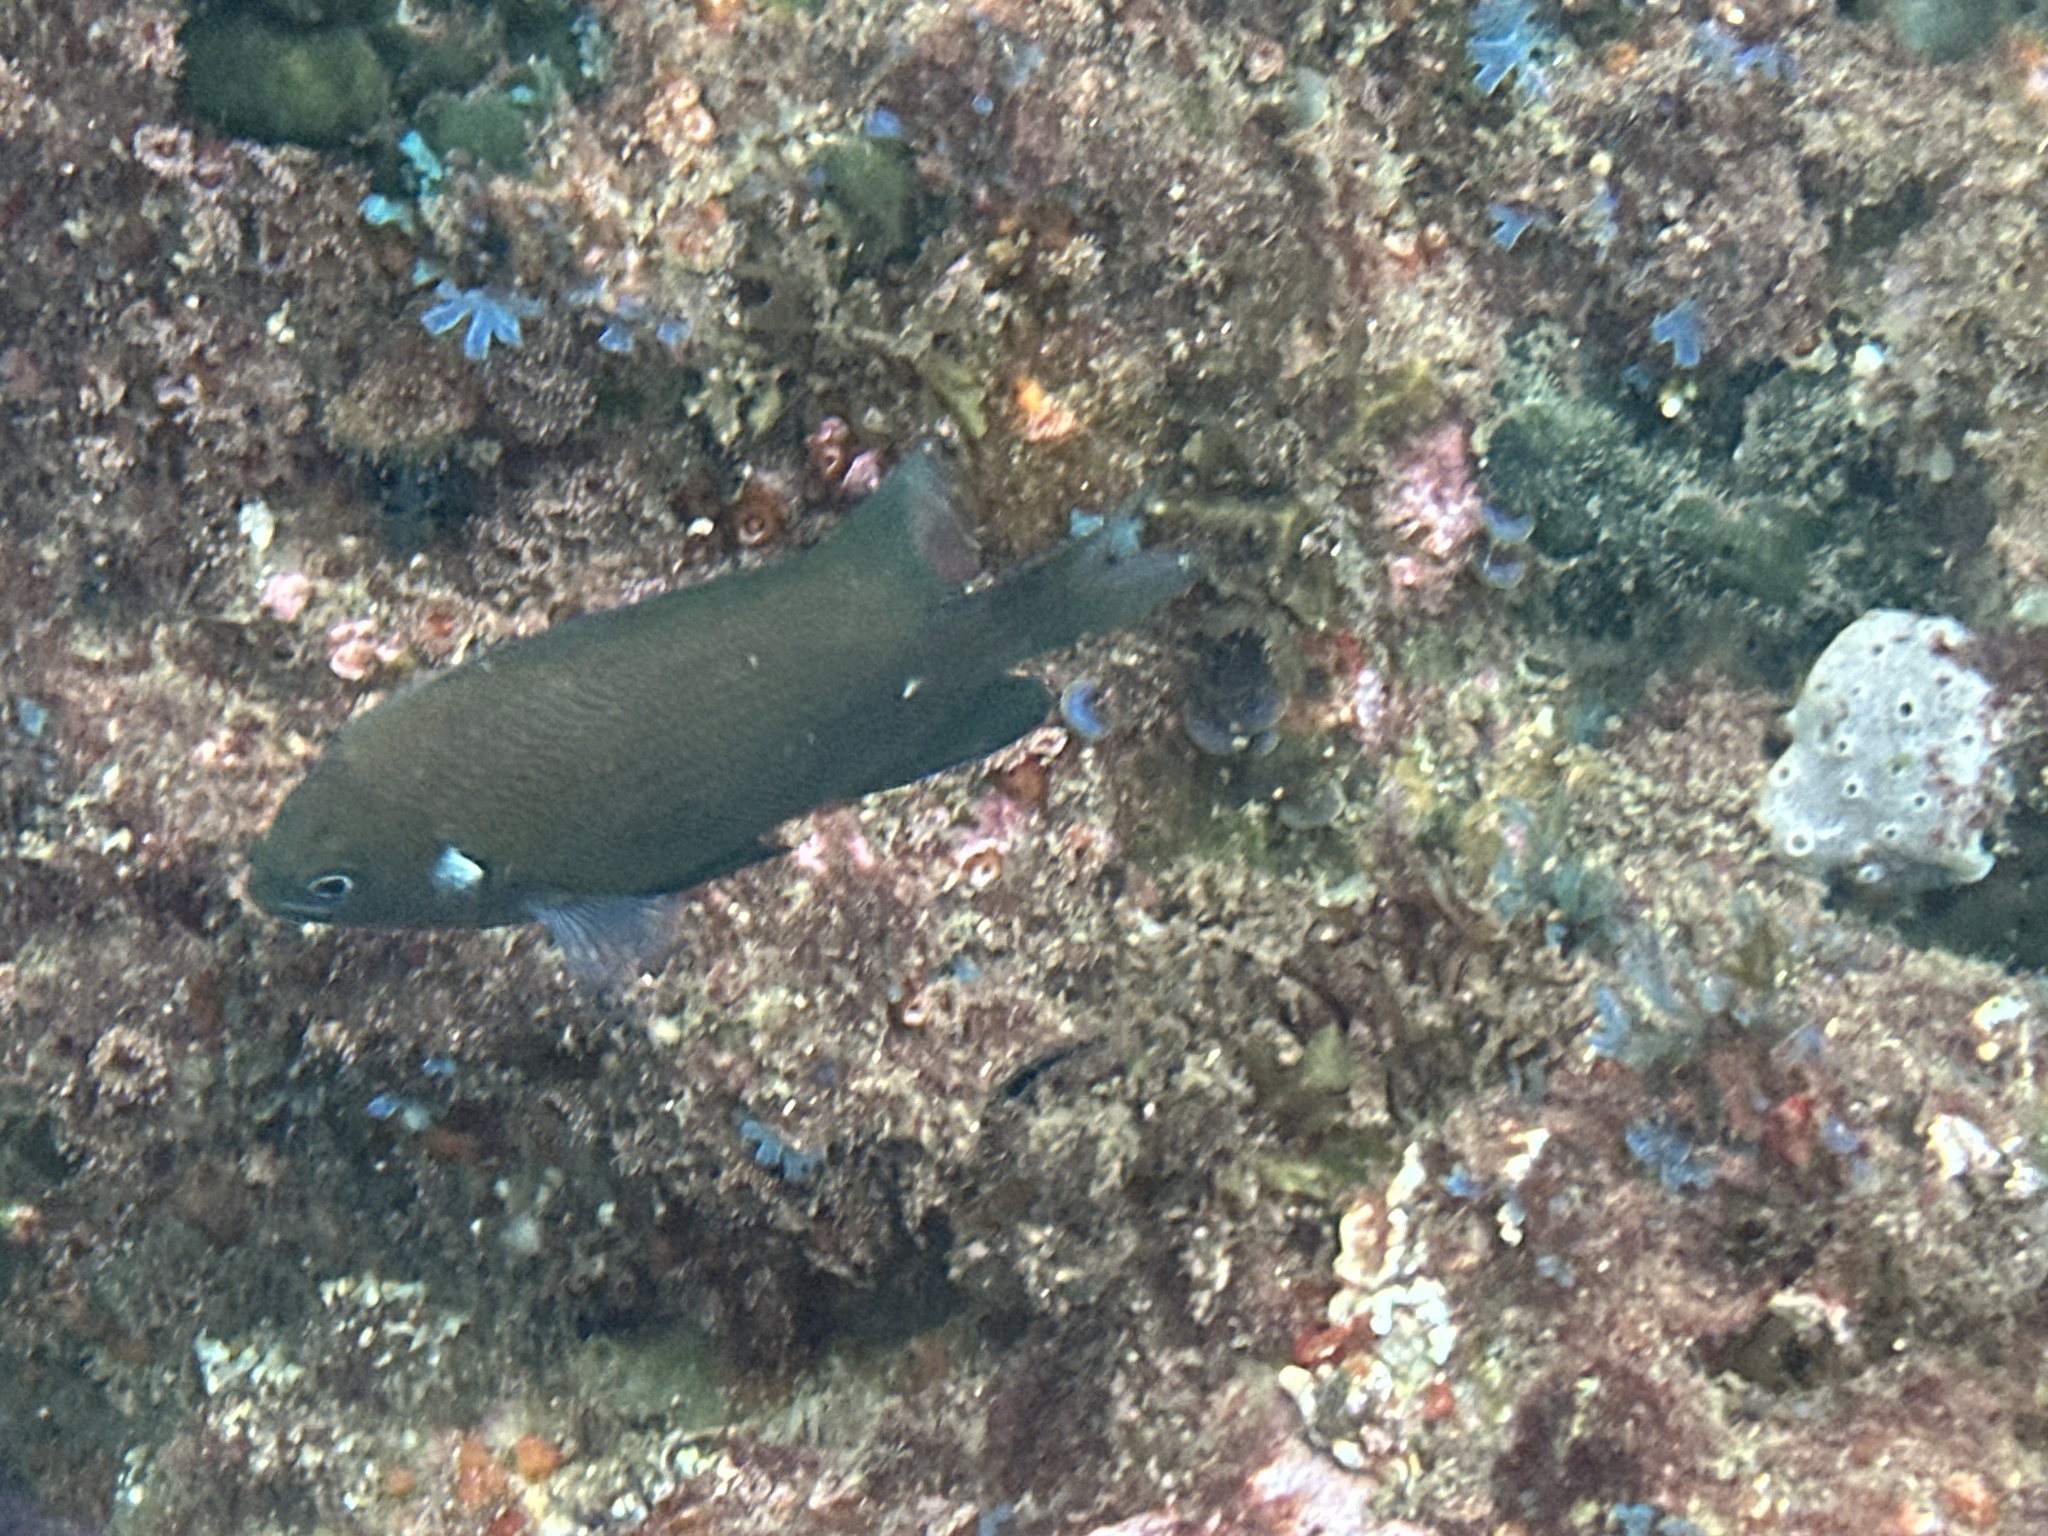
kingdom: Animalia
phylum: Chordata
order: Perciformes
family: Pomacentridae
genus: Parma
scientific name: Parma microlepis
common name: White-ear
